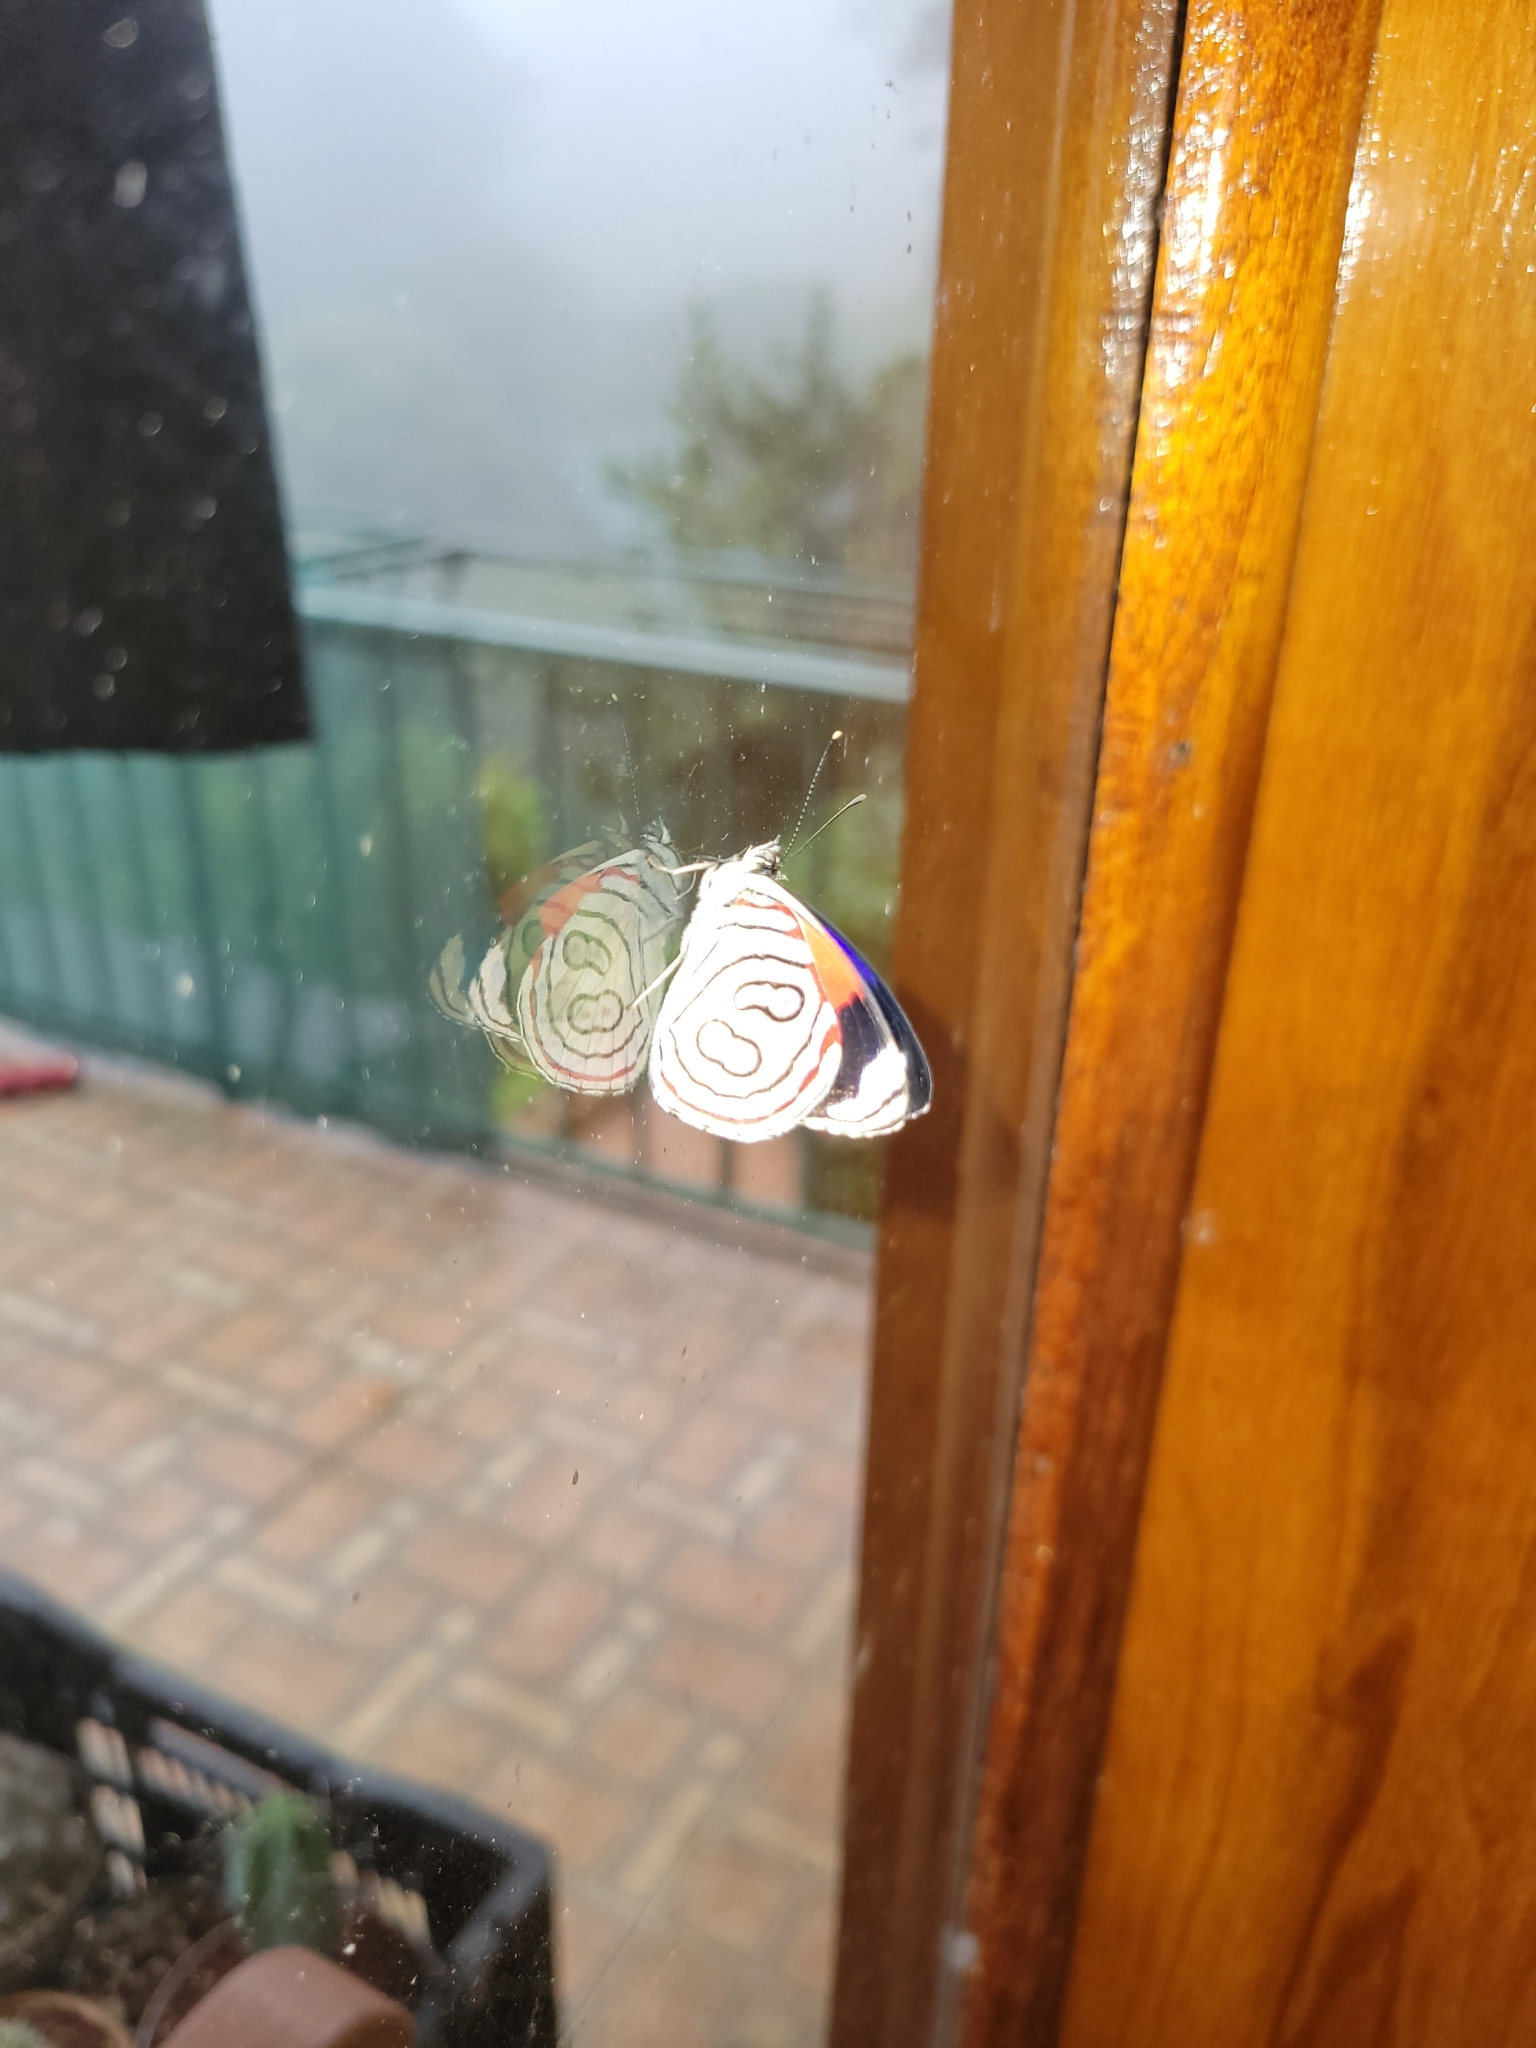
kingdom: Animalia
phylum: Arthropoda
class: Insecta
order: Lepidoptera
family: Nymphalidae
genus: Diaethria
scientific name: Diaethria astala
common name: Navy eighty-eight
